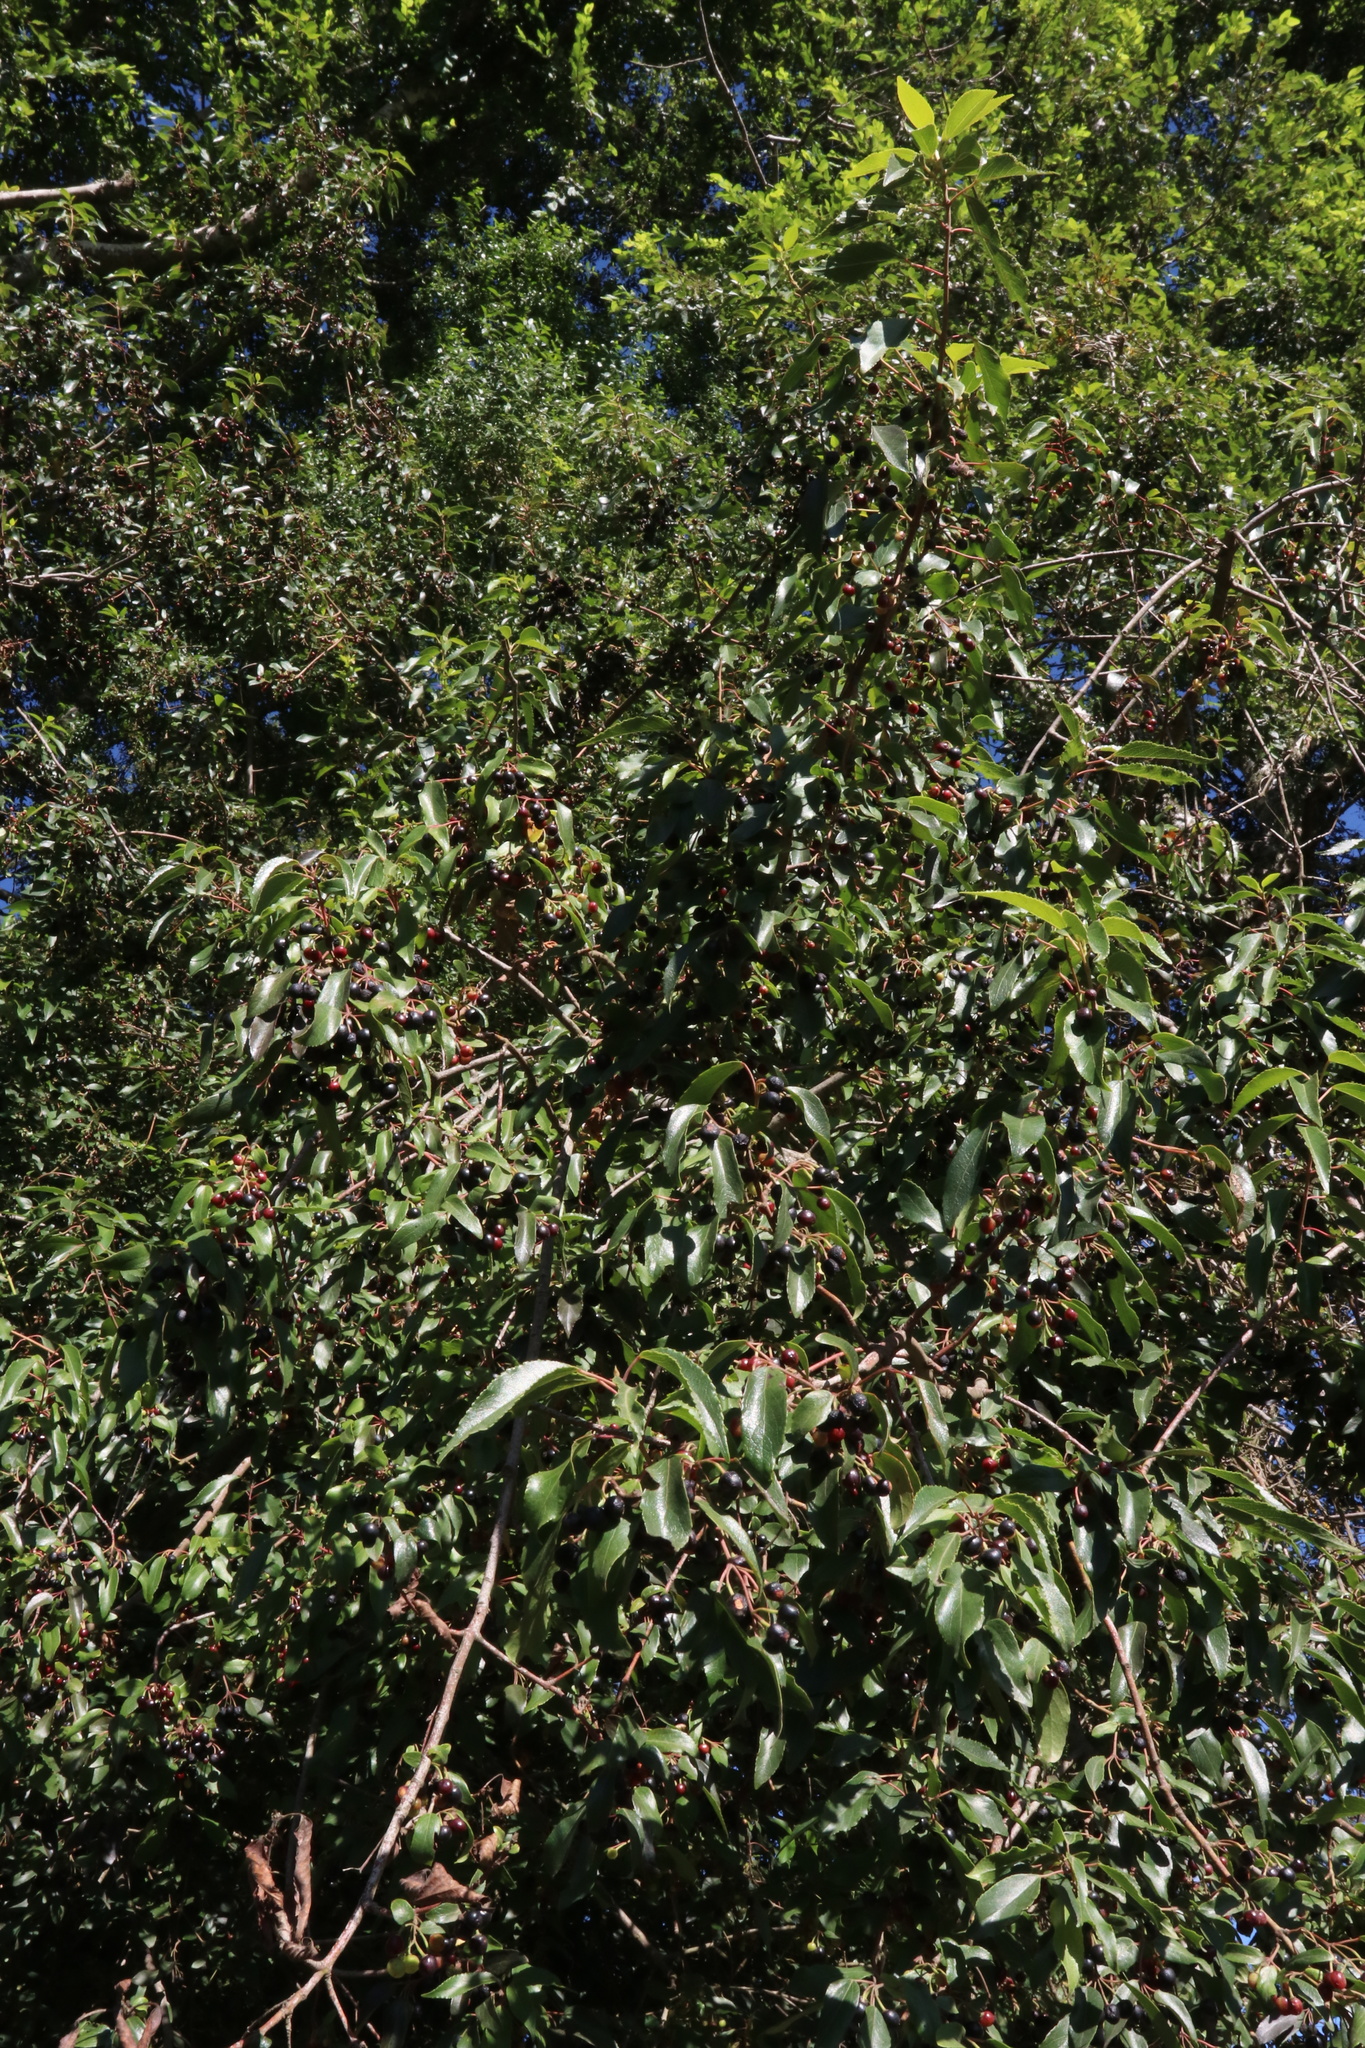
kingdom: Plantae
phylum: Tracheophyta
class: Magnoliopsida
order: Oxalidales
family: Elaeocarpaceae
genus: Aristotelia
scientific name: Aristotelia chilensis
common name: Maquei
